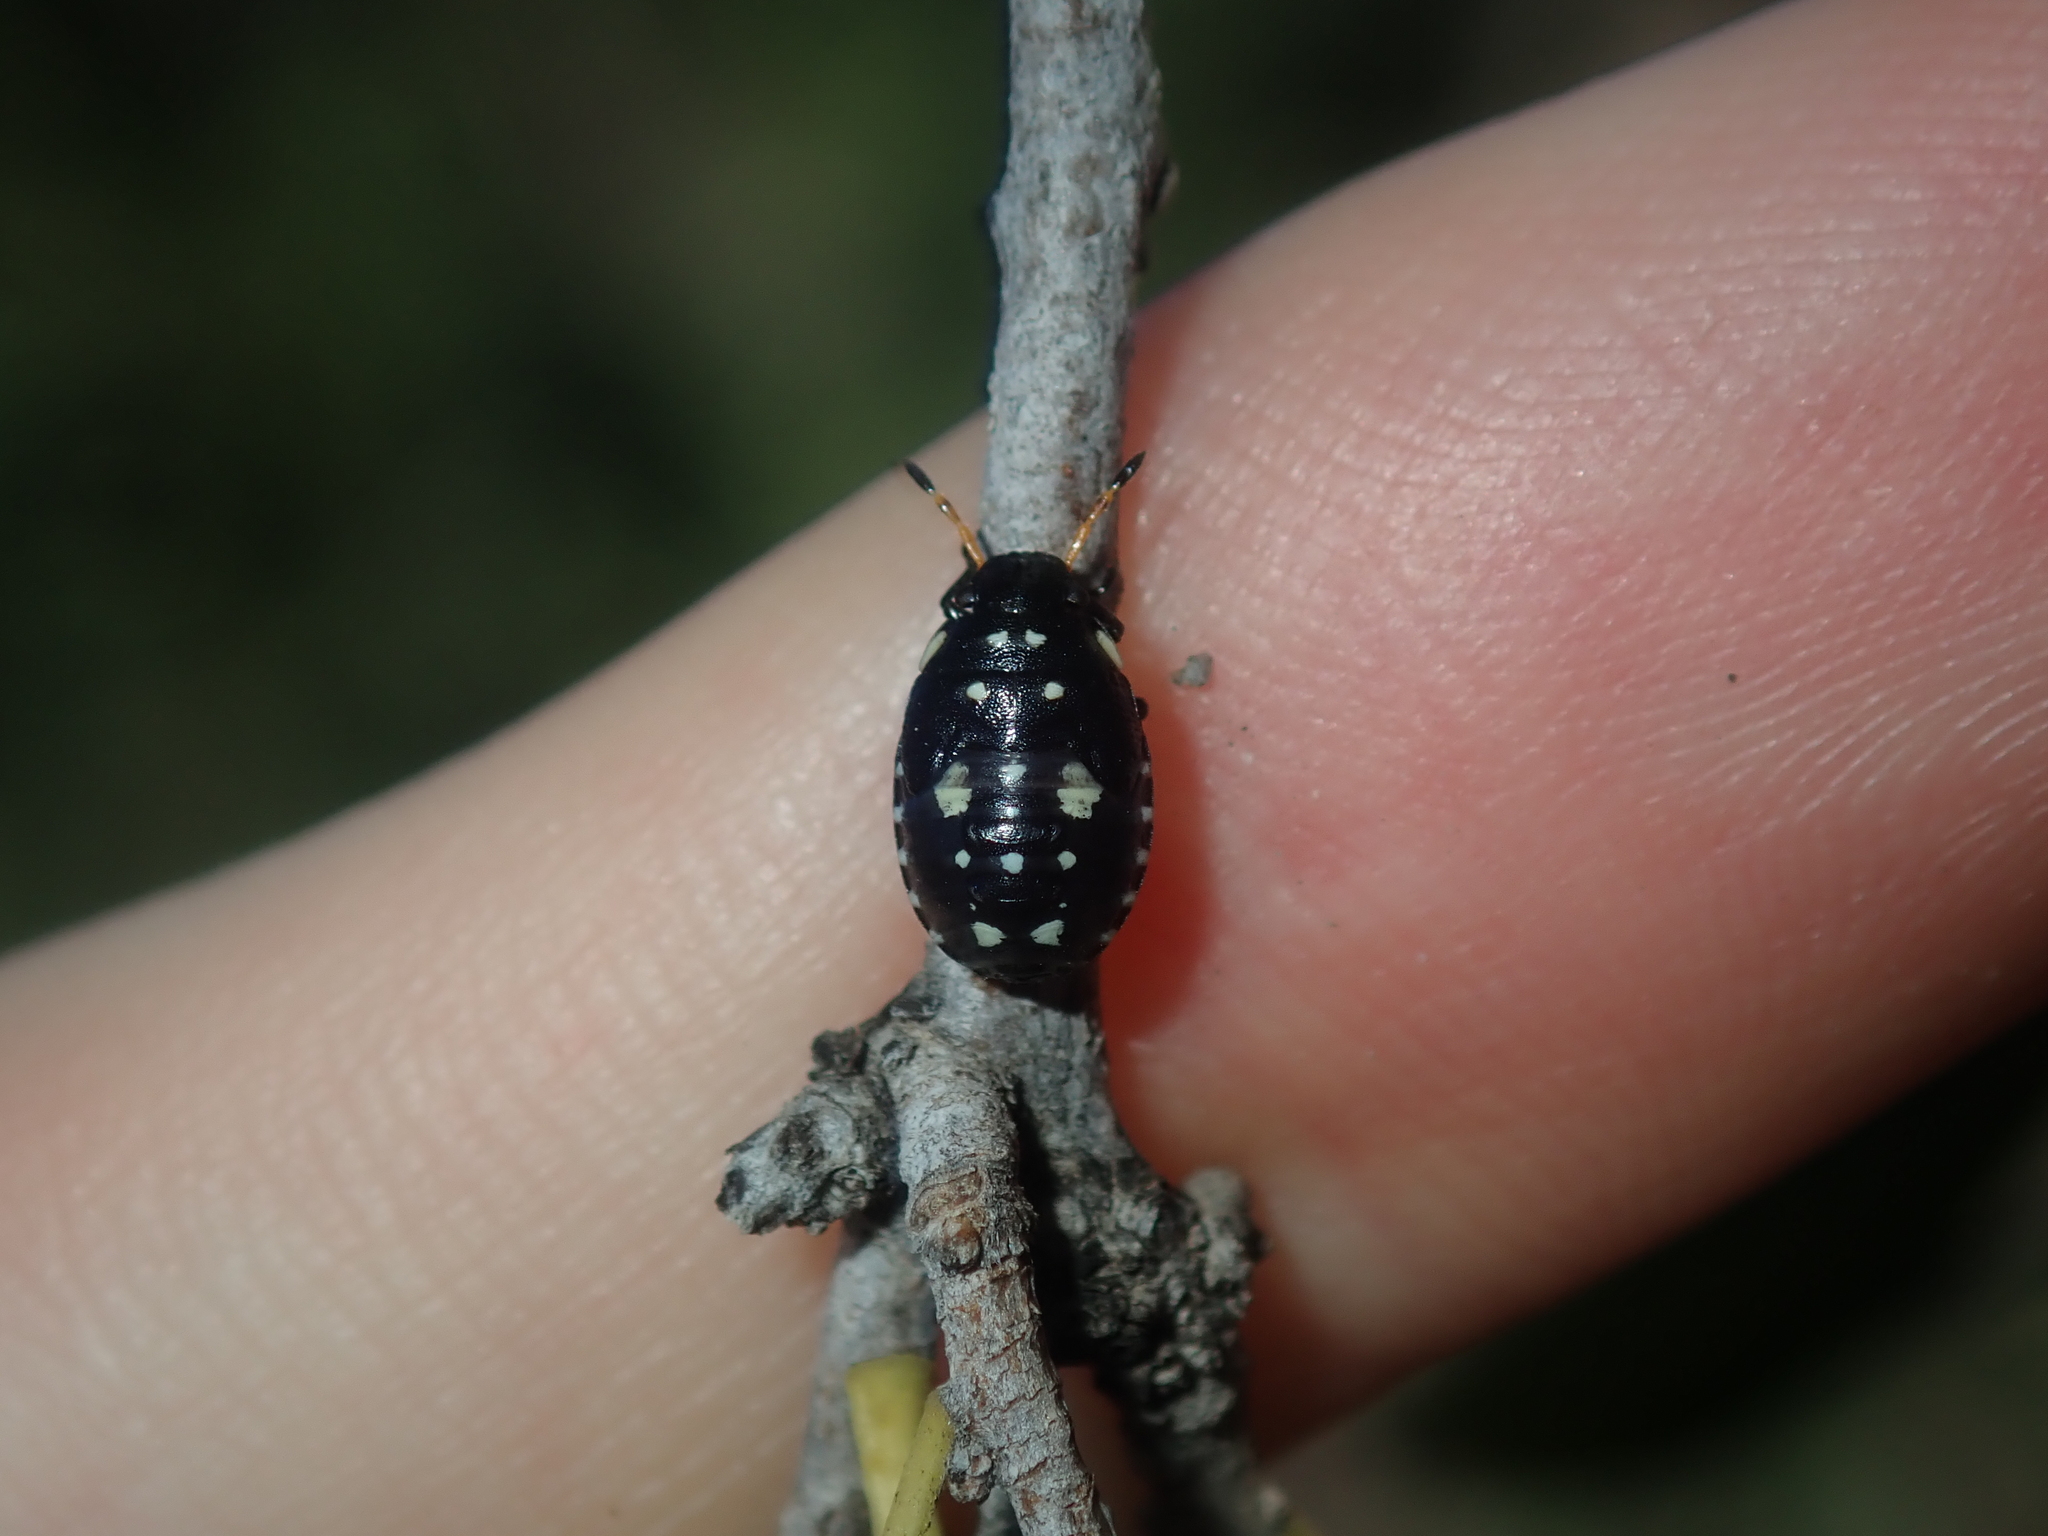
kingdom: Animalia
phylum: Arthropoda
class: Insecta
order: Hemiptera
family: Pentatomidae
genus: Pseudapines
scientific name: Pseudapines
